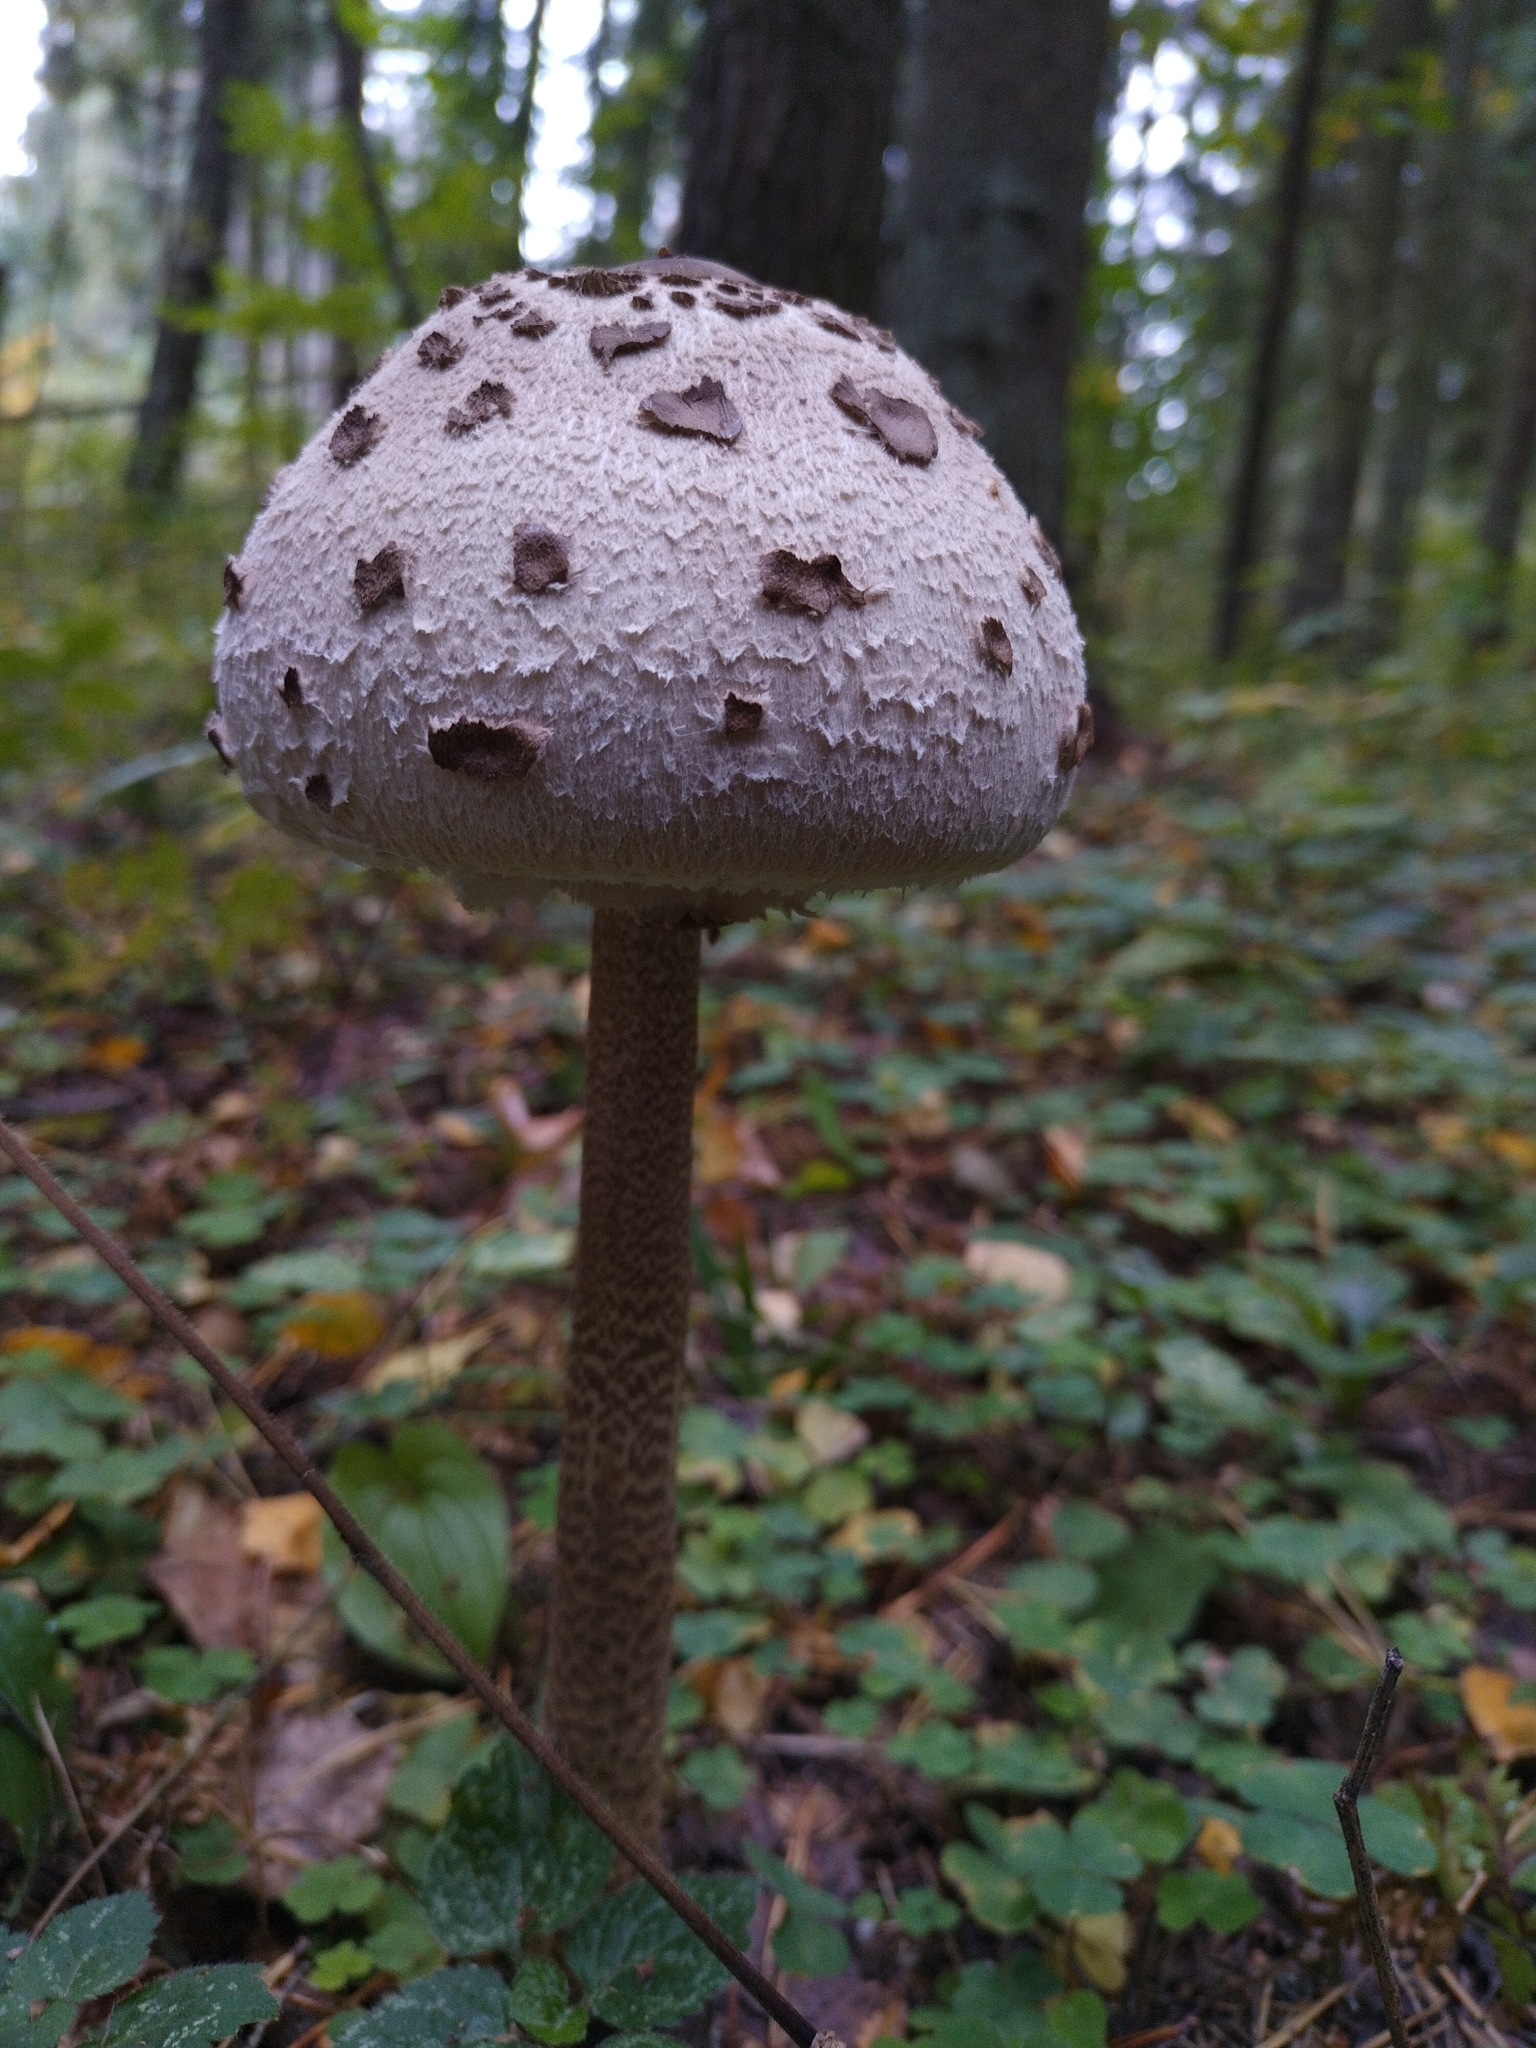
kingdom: Fungi
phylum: Basidiomycota
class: Agaricomycetes
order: Agaricales
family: Agaricaceae
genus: Macrolepiota
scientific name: Macrolepiota procera
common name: Parasol
